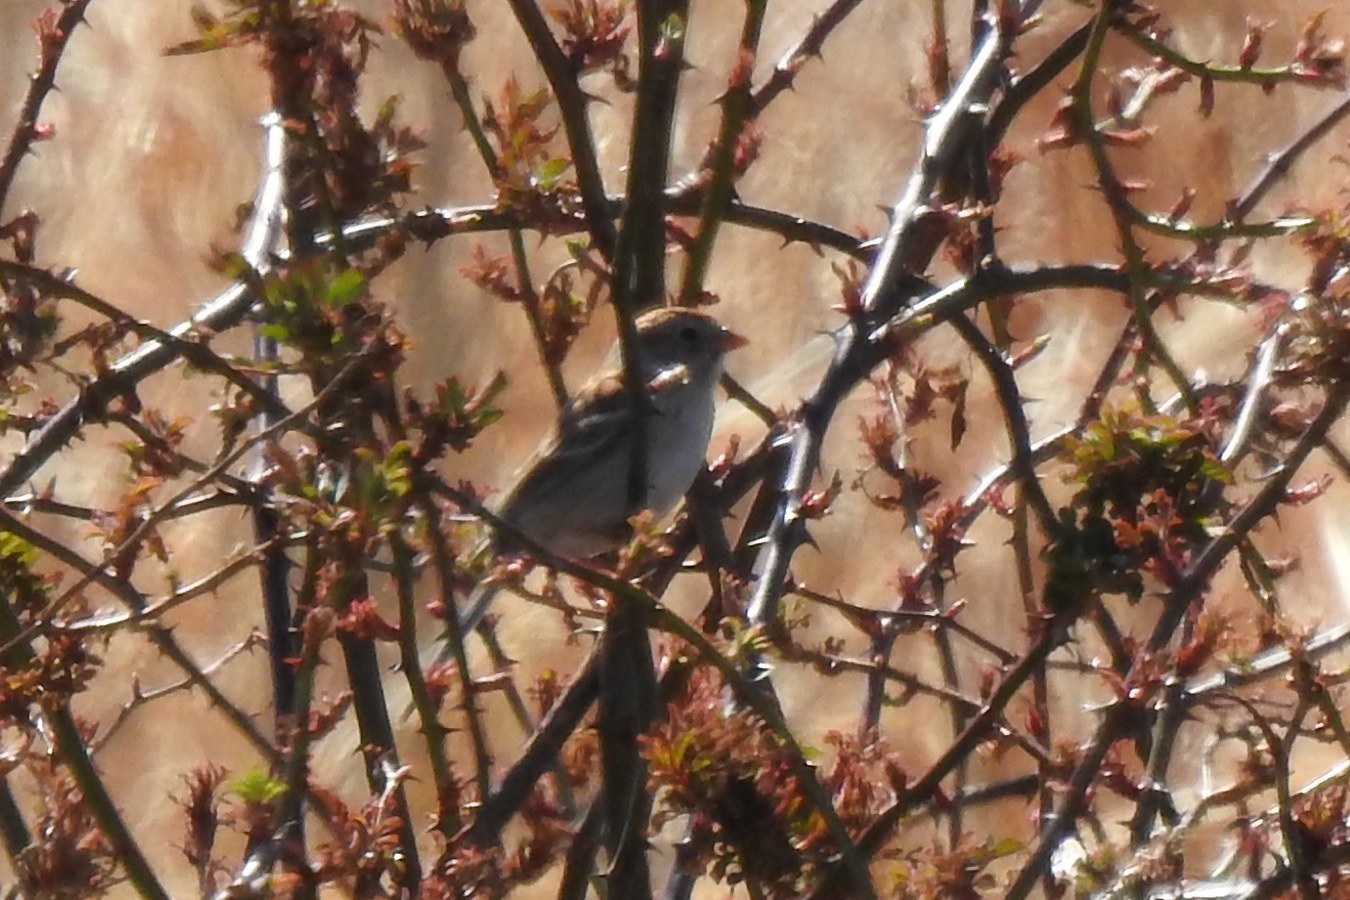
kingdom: Animalia
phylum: Chordata
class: Aves
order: Passeriformes
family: Passerellidae
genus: Spizella
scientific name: Spizella pusilla
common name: Field sparrow
